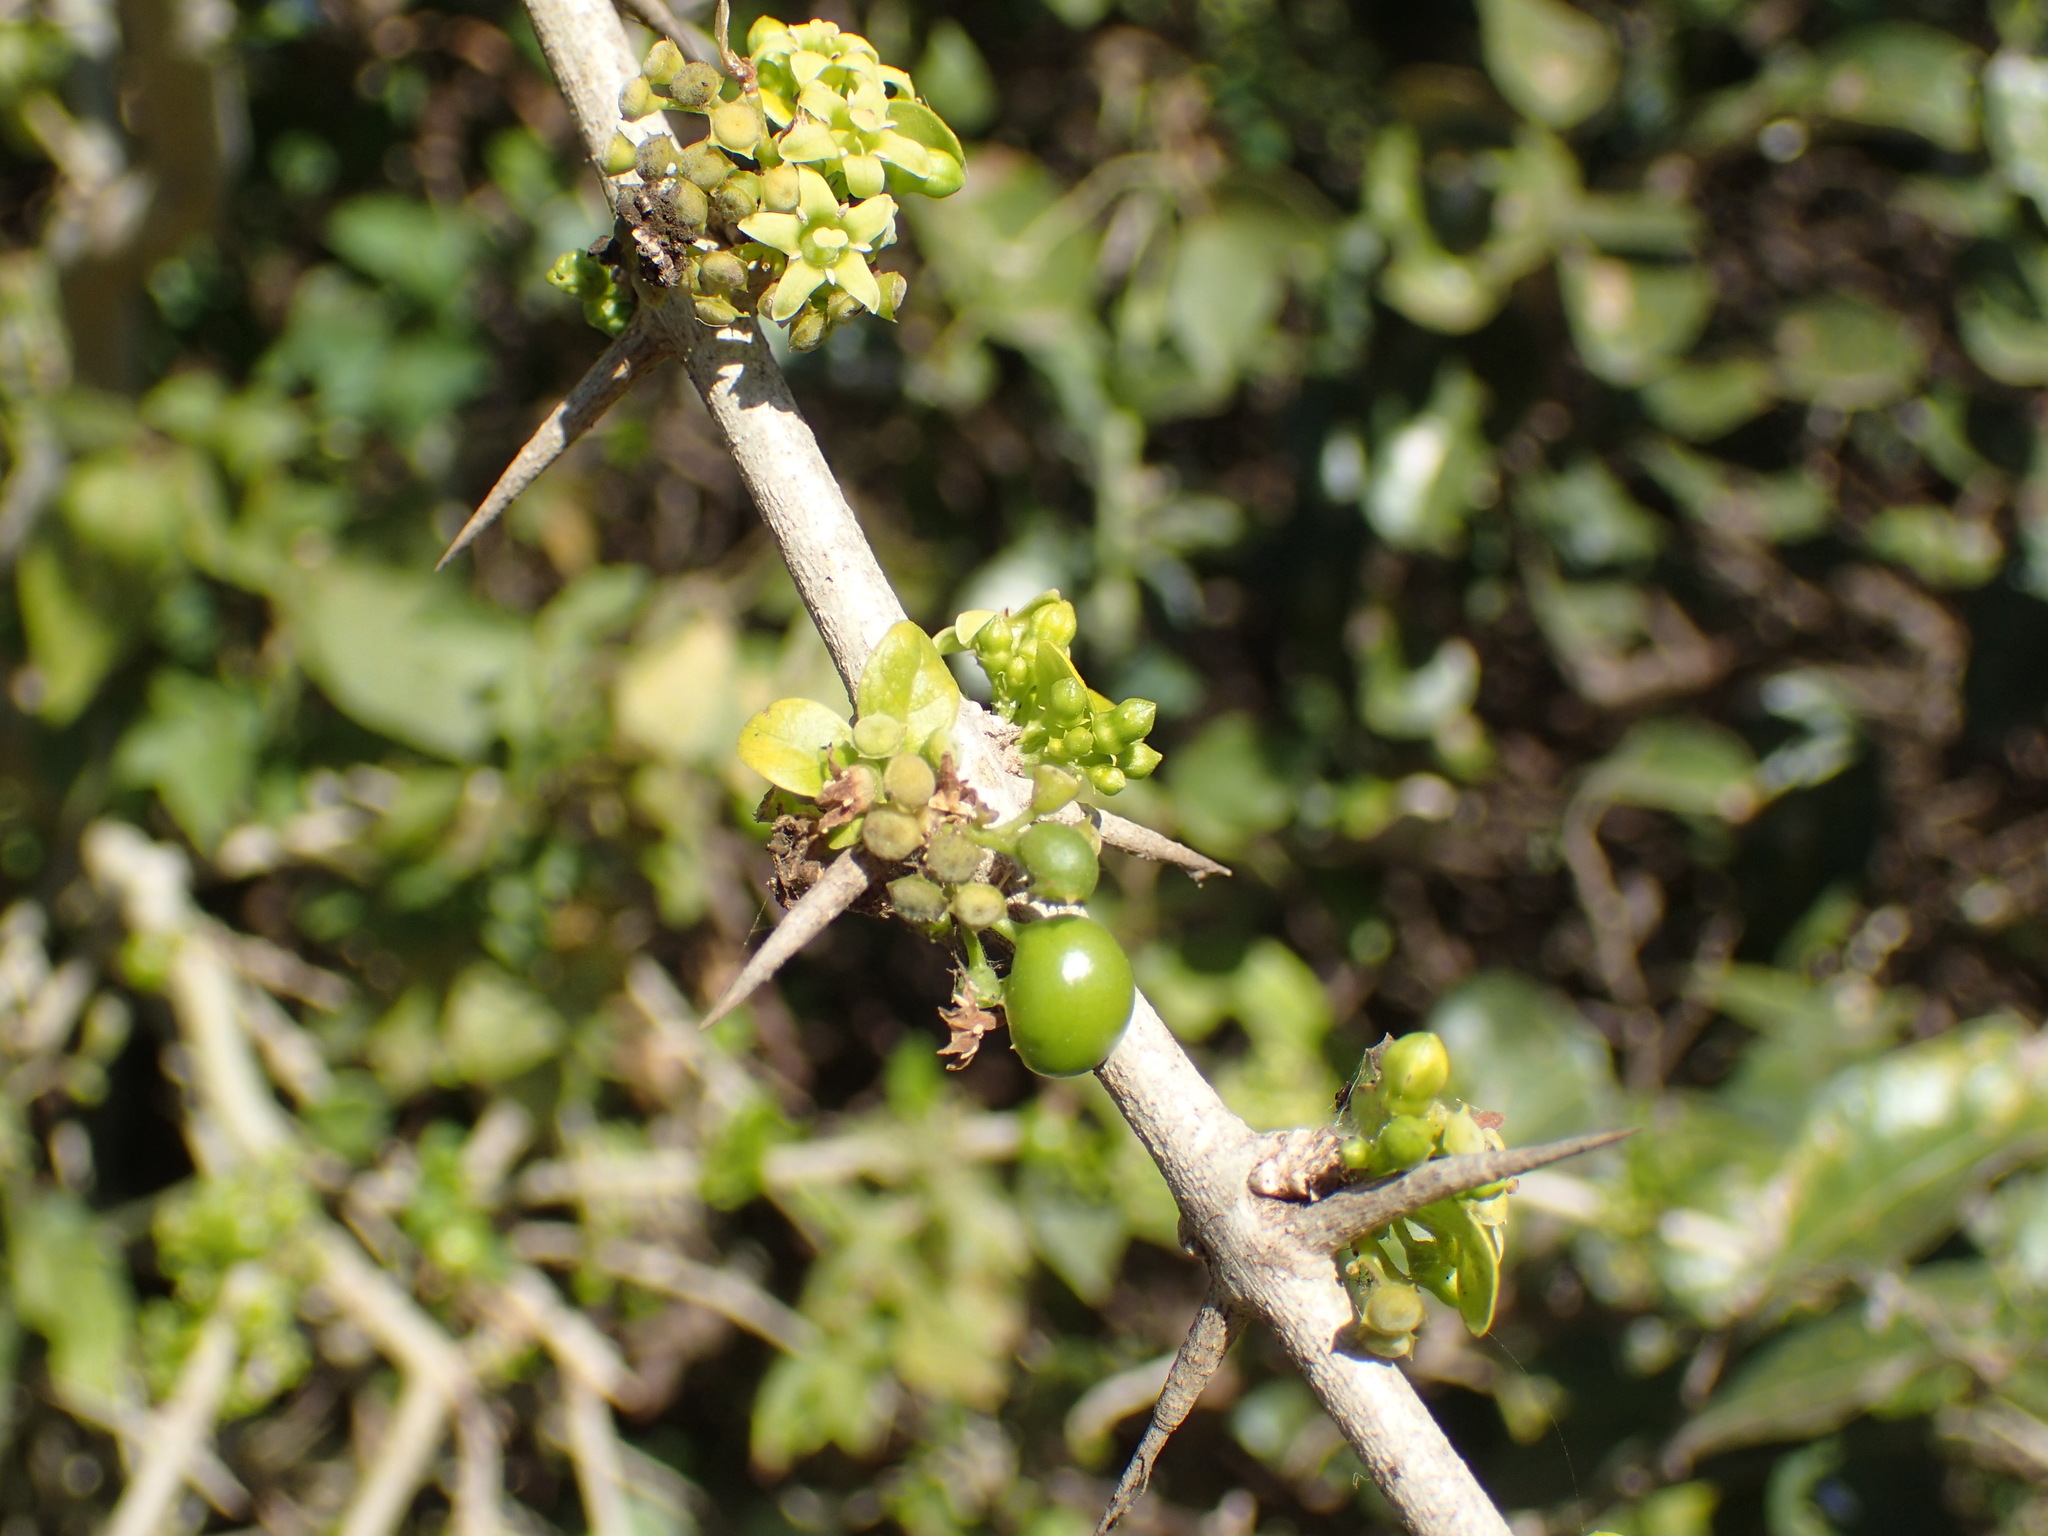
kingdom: Plantae
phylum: Tracheophyta
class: Magnoliopsida
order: Gentianales
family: Rubiaceae
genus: Catunaregam
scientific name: Catunaregam spinosa
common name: Emetic-nut
